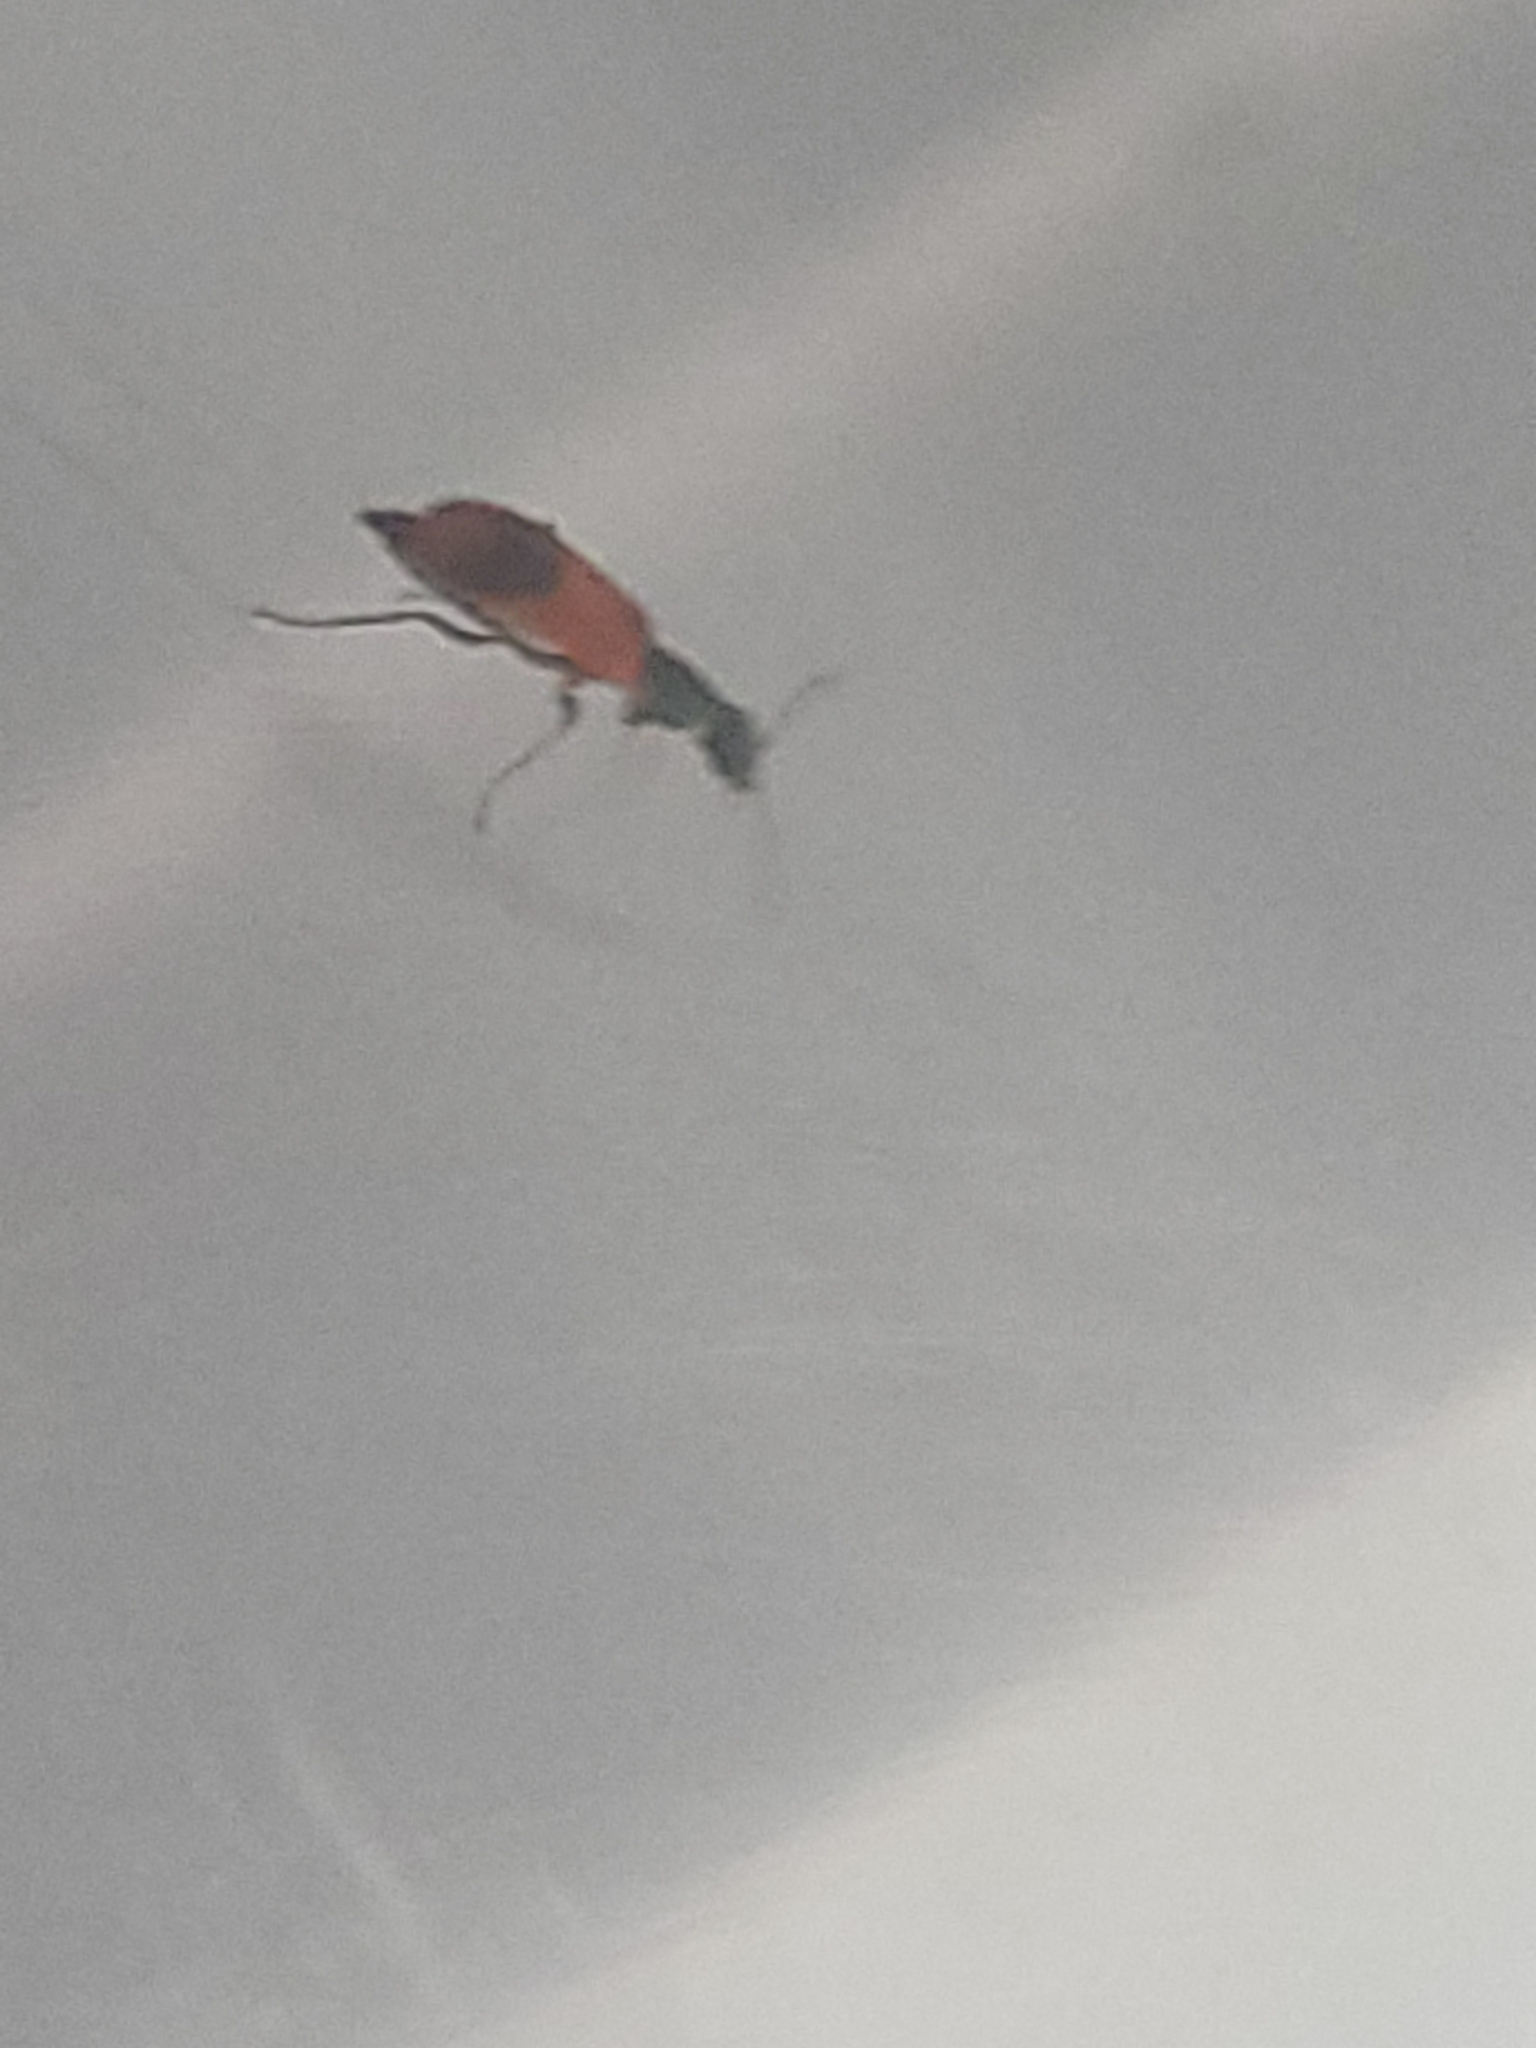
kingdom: Animalia
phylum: Arthropoda
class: Insecta
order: Coleoptera
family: Melyridae
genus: Anthocomus
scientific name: Anthocomus equestris
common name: Black-banded soft-winged flower beetle
